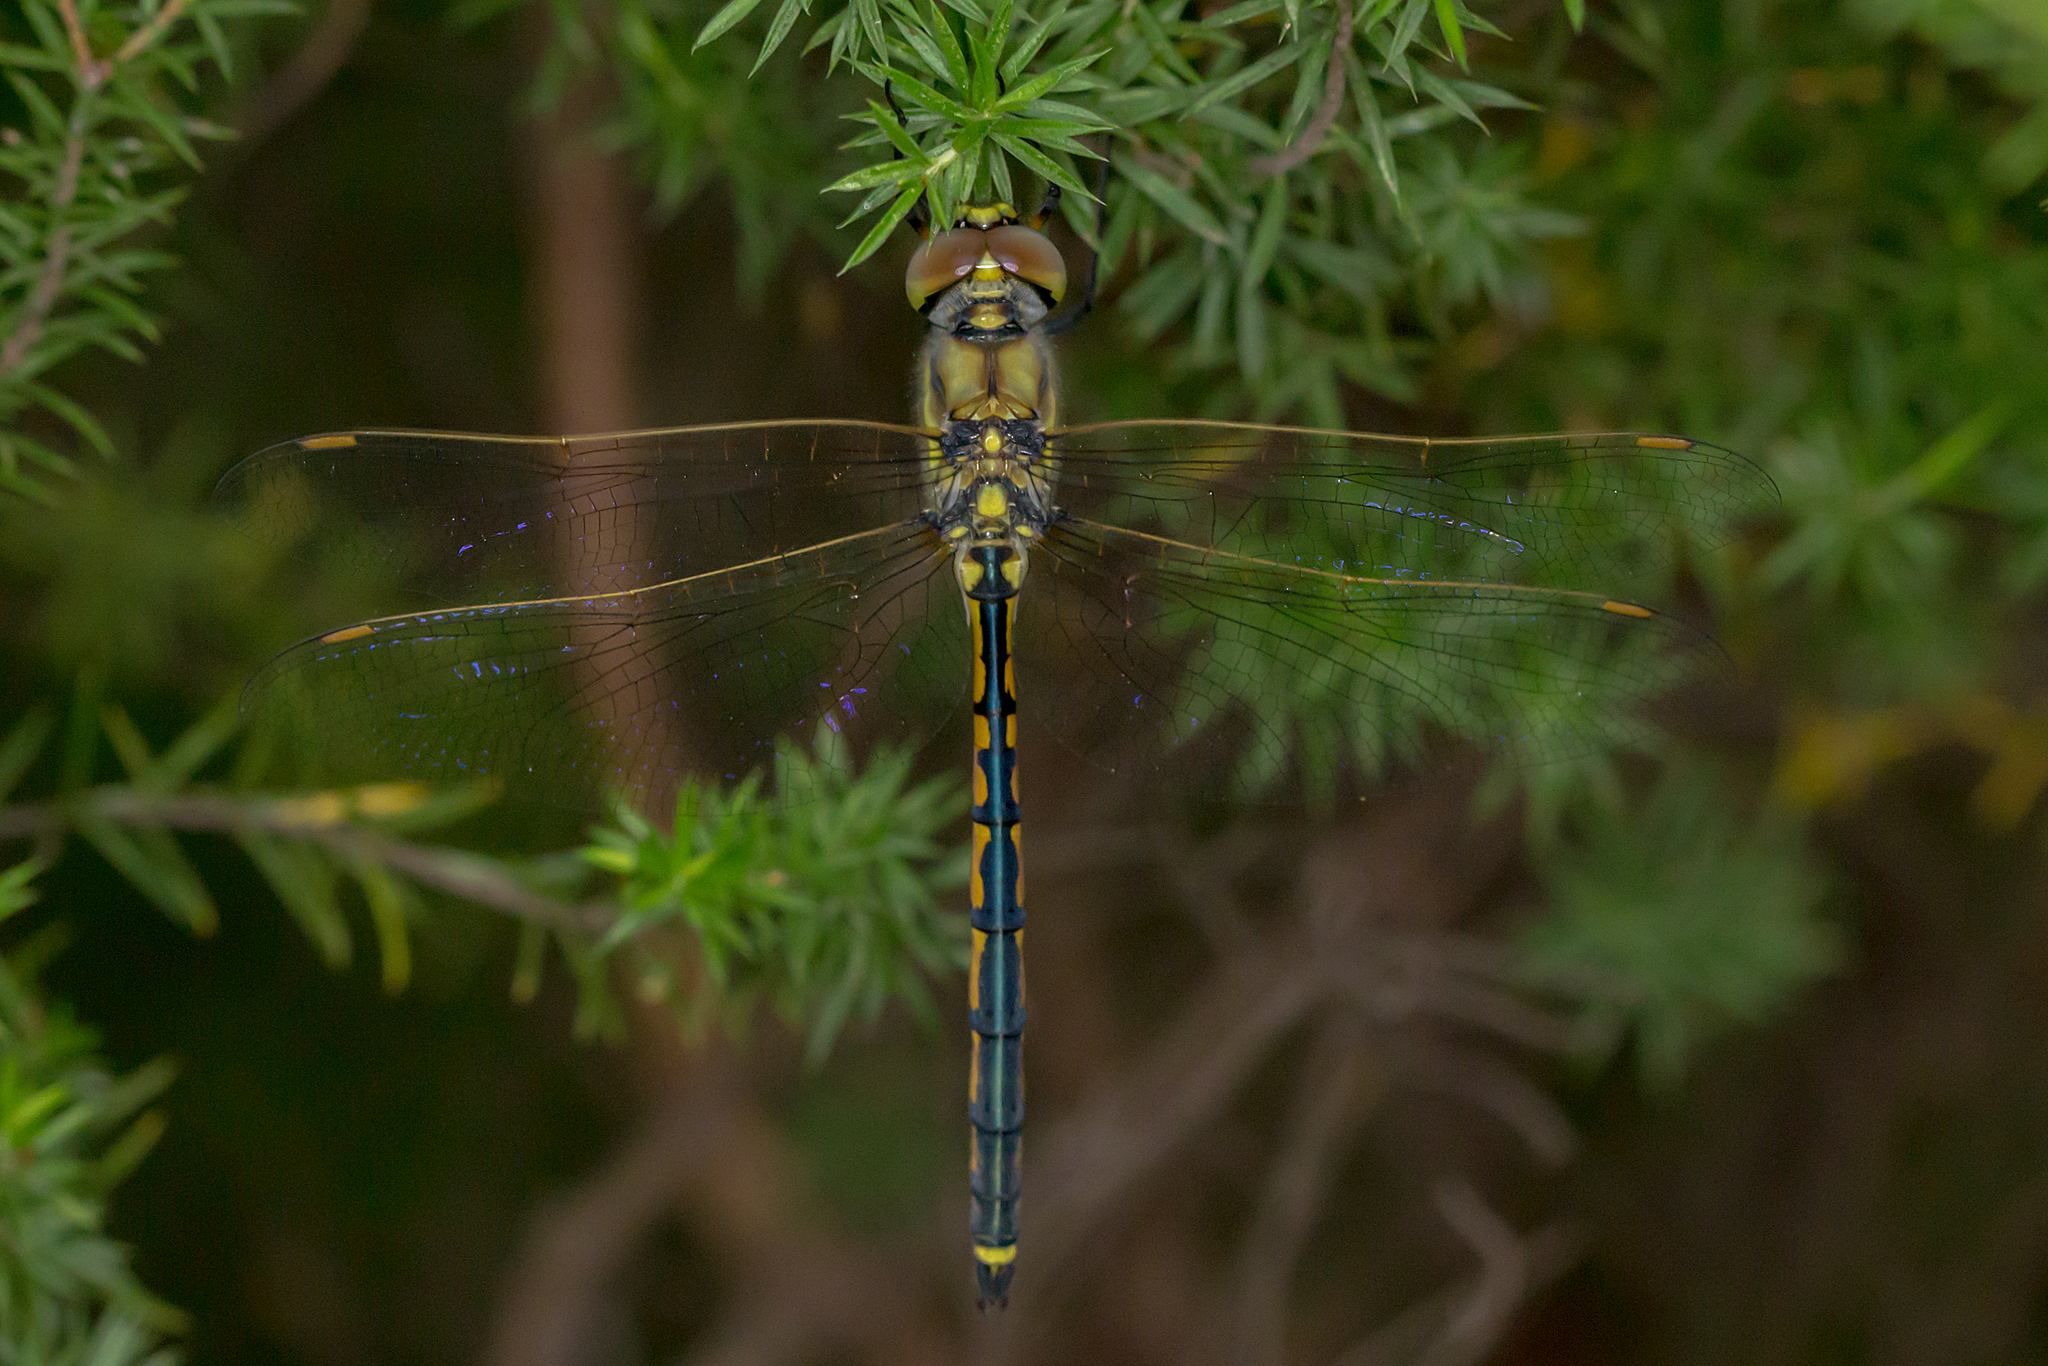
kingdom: Animalia
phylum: Arthropoda
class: Insecta
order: Odonata
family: Corduliidae
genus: Hemicordulia
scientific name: Hemicordulia tau
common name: Tau emerald
